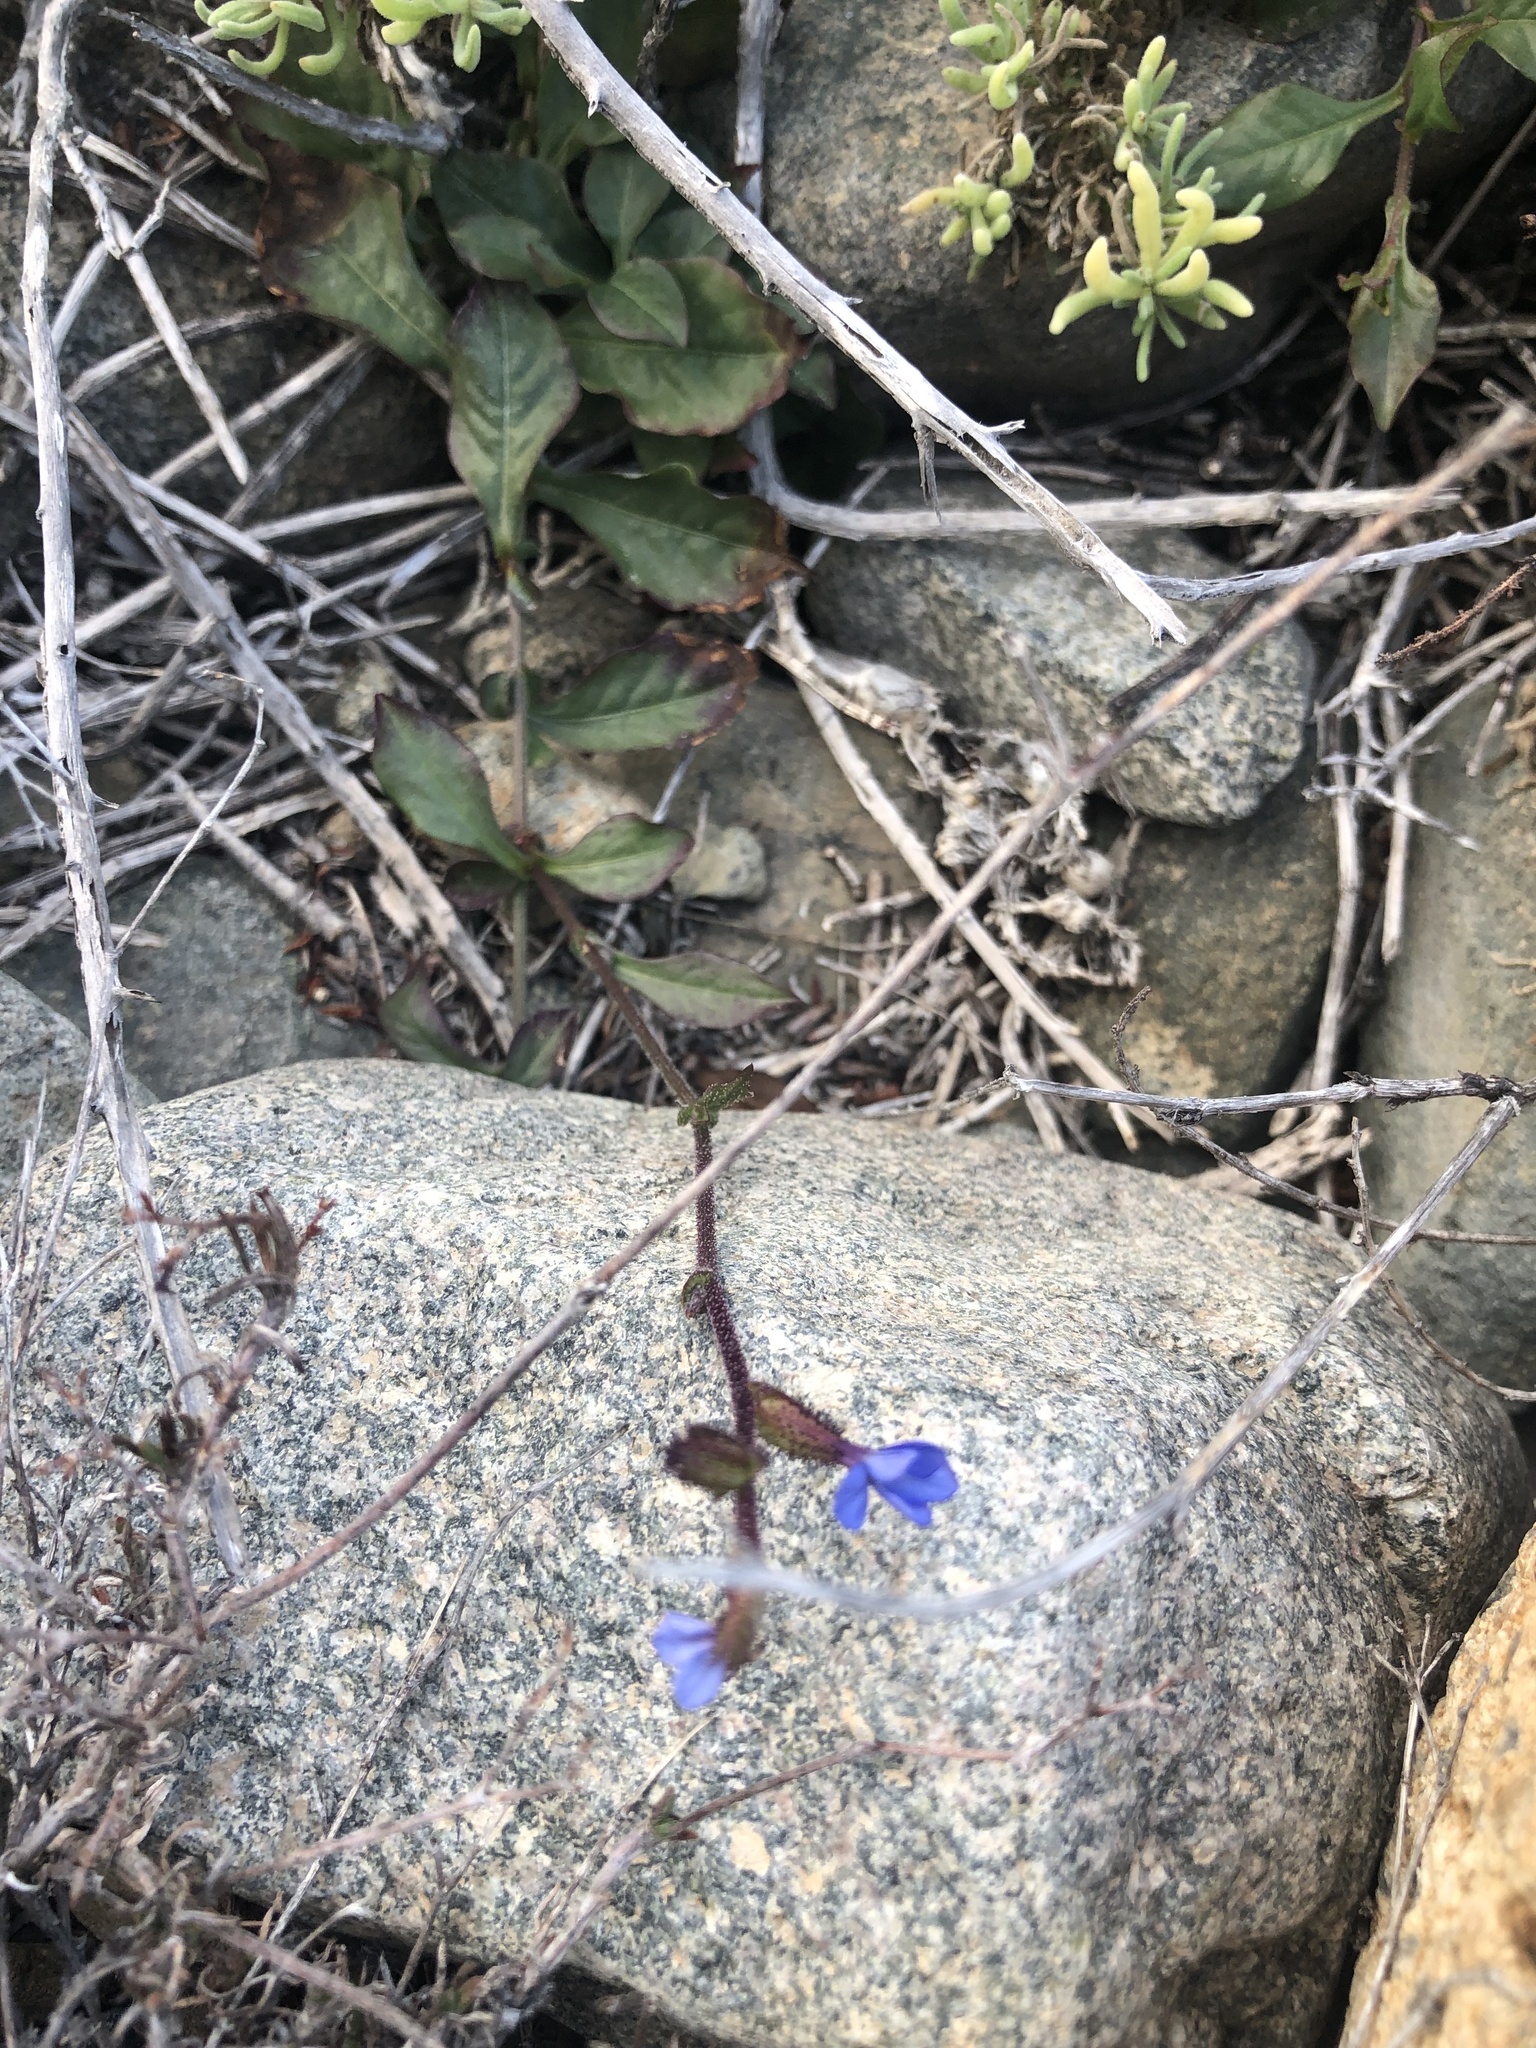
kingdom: Plantae
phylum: Tracheophyta
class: Magnoliopsida
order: Caryophyllales
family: Plumbaginaceae
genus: Plumbago
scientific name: Plumbago caerulea
